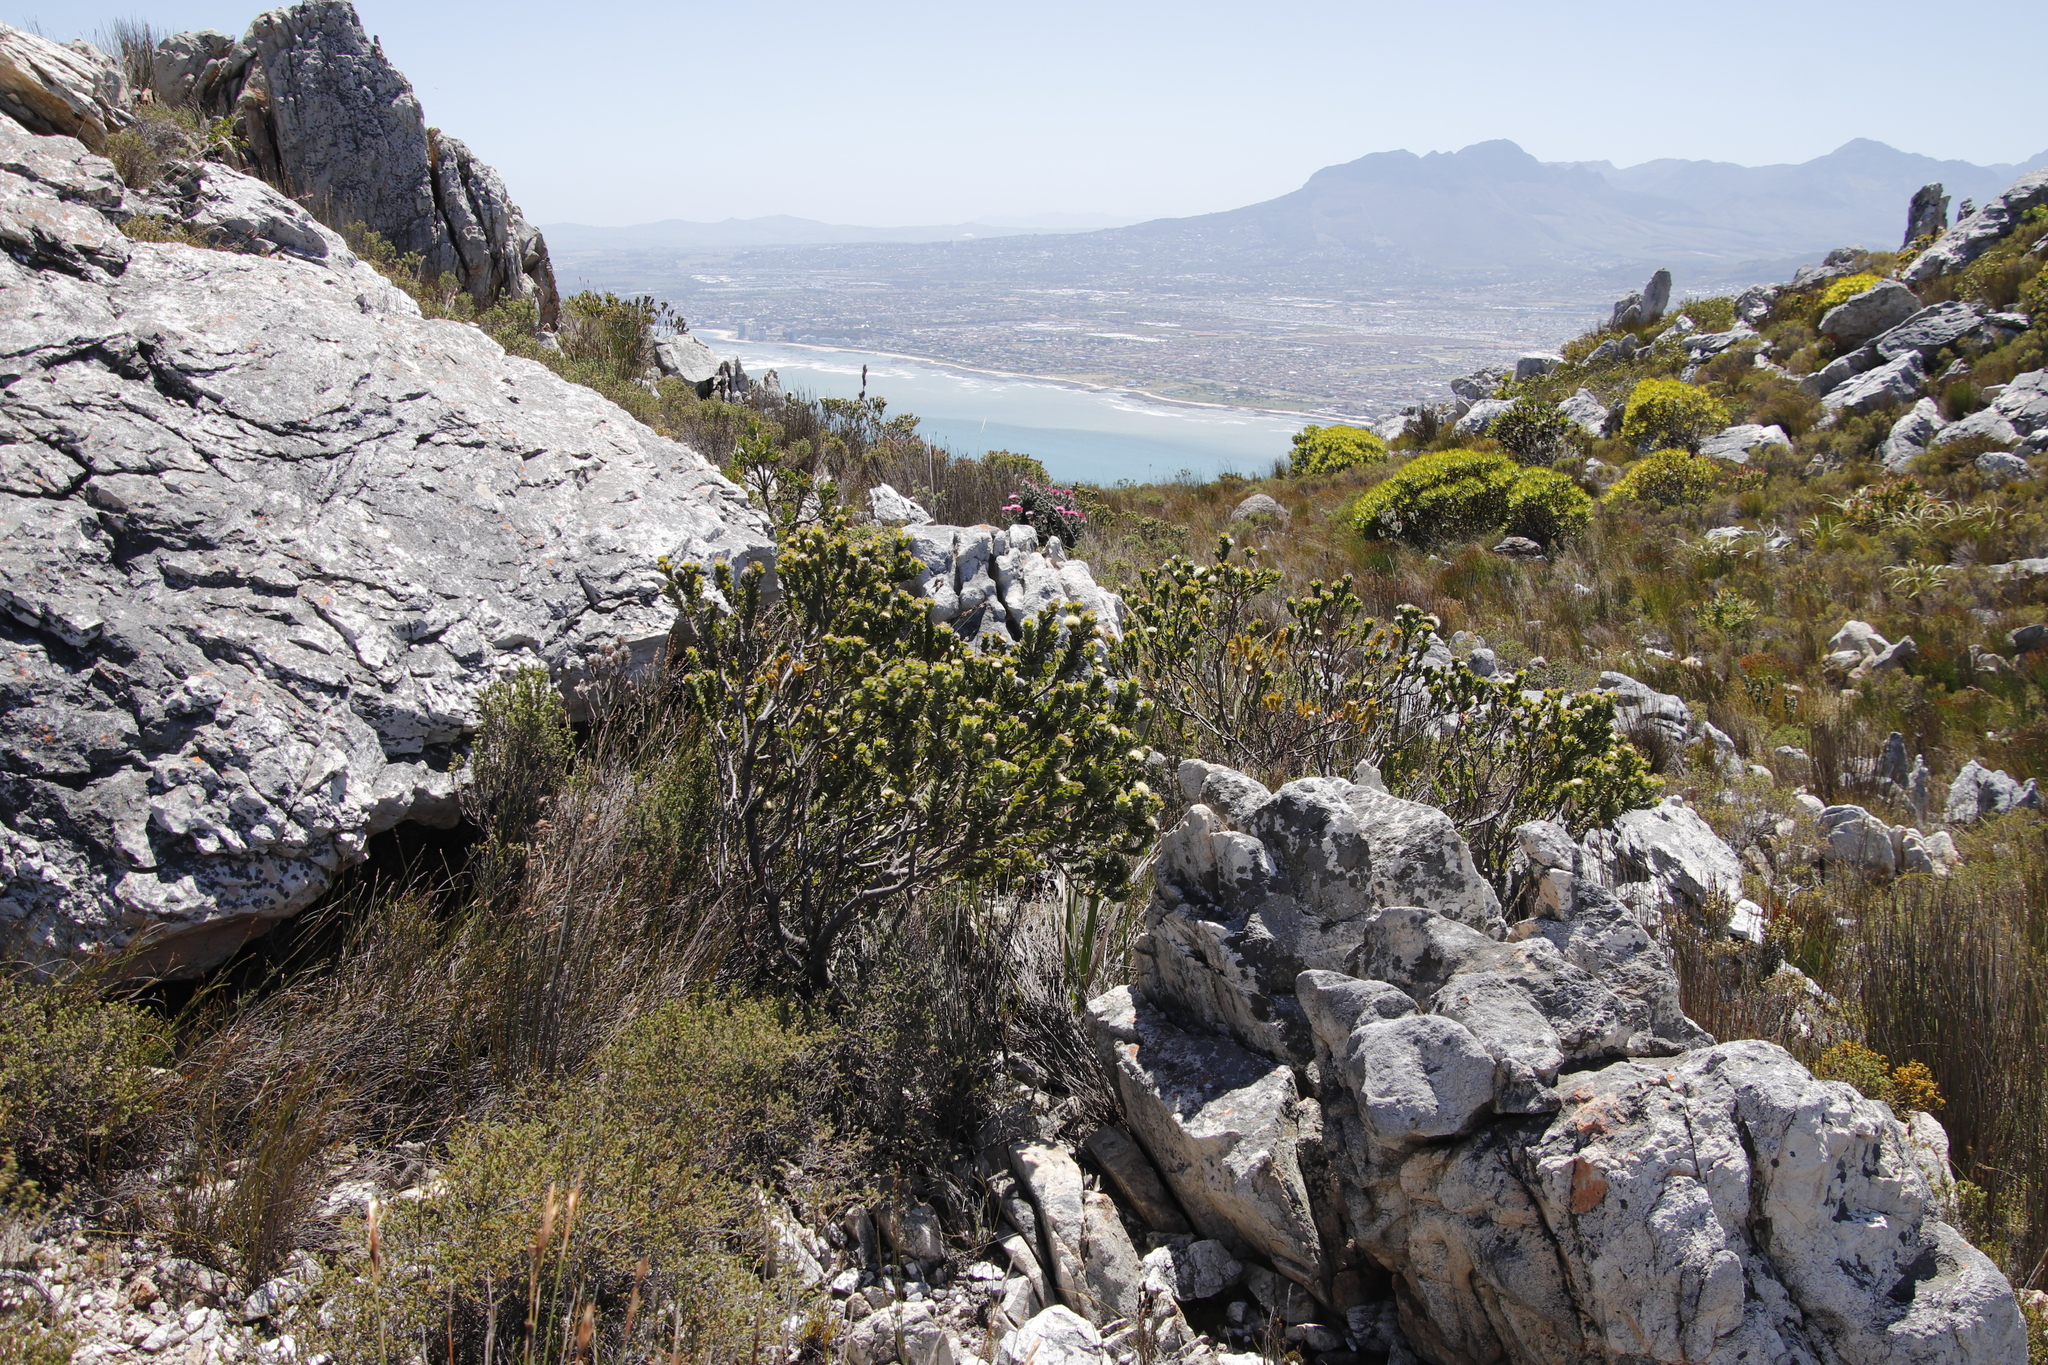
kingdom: Plantae
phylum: Tracheophyta
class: Magnoliopsida
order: Proteales
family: Proteaceae
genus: Diastella
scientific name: Diastella thymelaeoides
